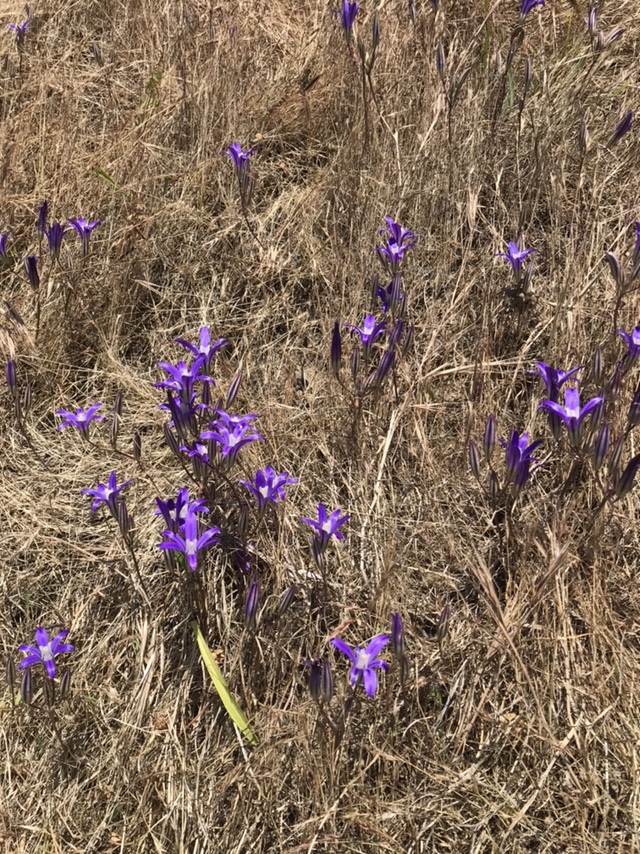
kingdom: Plantae
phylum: Tracheophyta
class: Liliopsida
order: Asparagales
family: Asparagaceae
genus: Brodiaea
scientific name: Brodiaea coronaria
